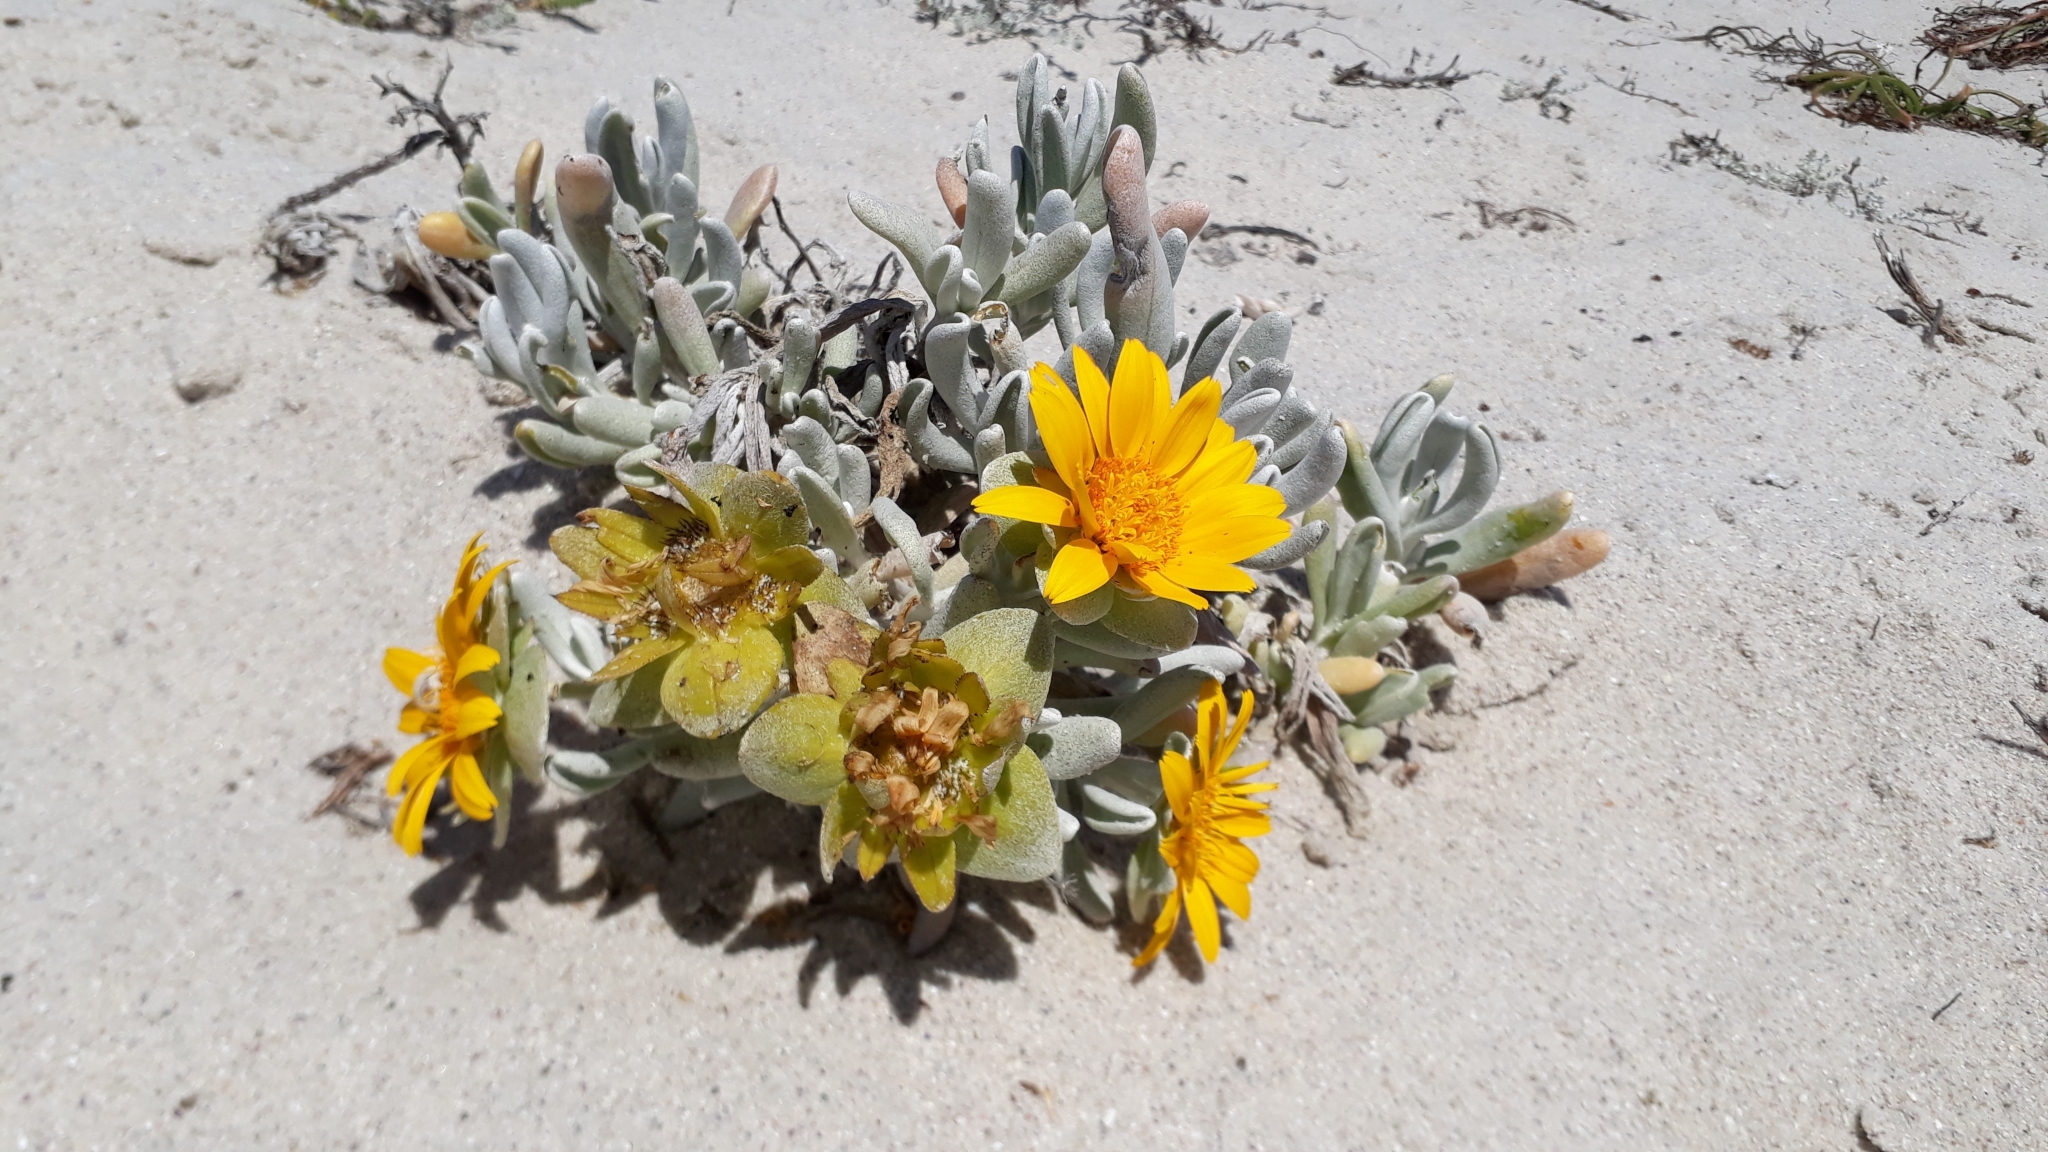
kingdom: Plantae
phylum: Tracheophyta
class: Magnoliopsida
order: Asterales
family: Asteraceae
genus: Didelta
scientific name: Didelta carnosa
